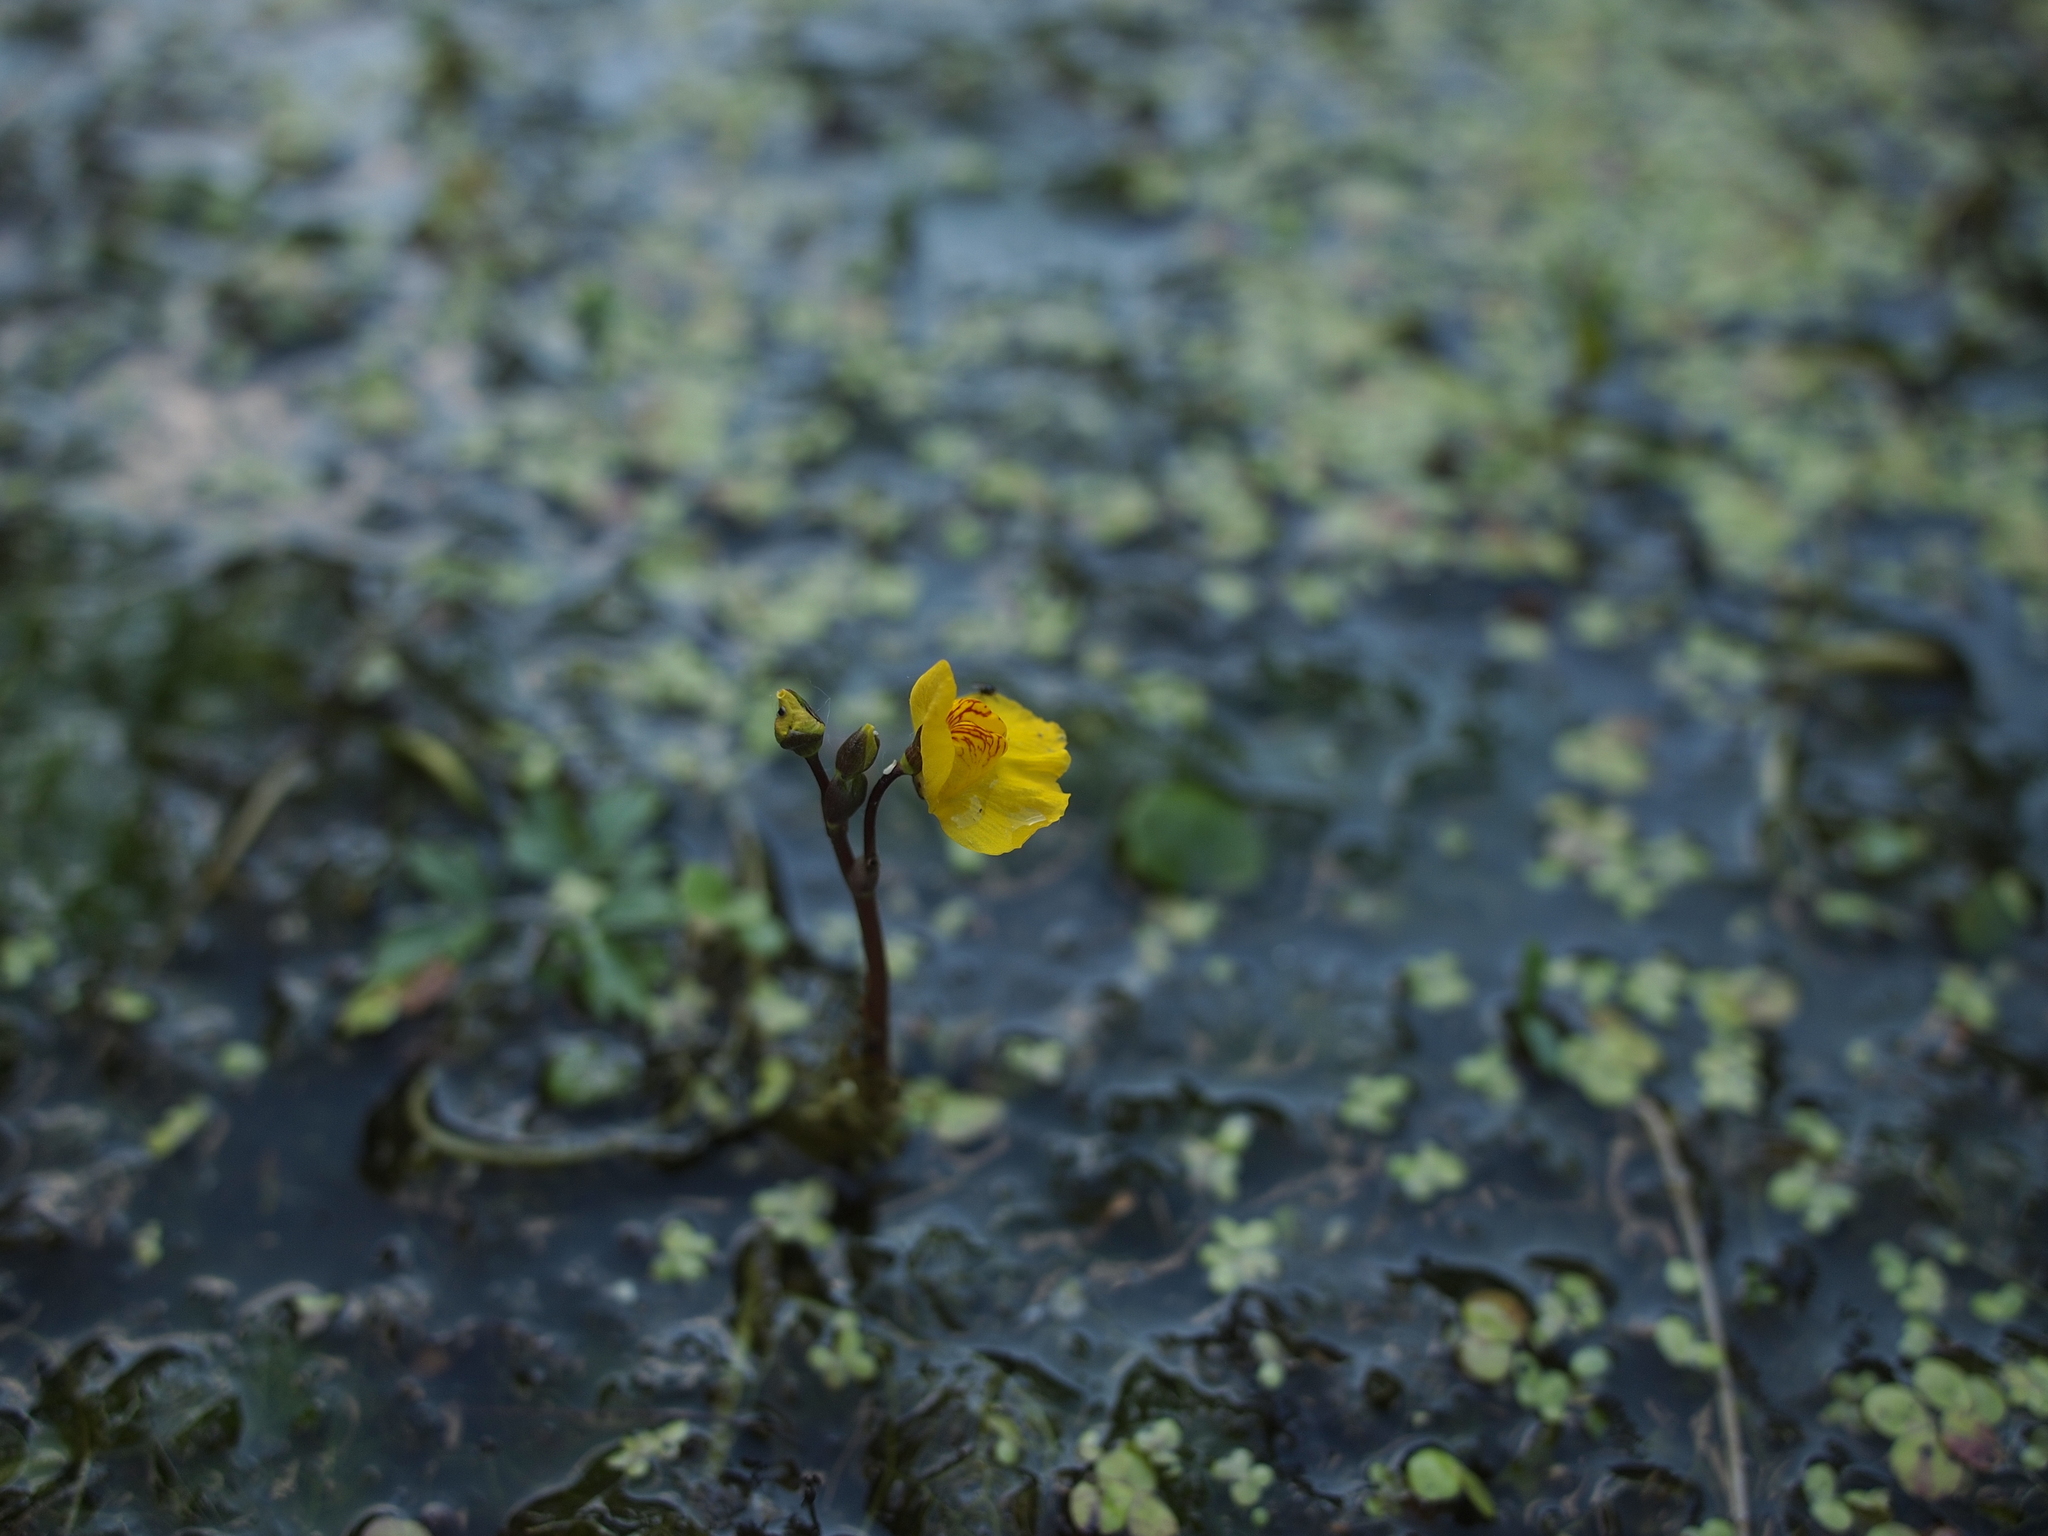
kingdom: Plantae
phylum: Tracheophyta
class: Magnoliopsida
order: Lamiales
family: Lentibulariaceae
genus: Utricularia
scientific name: Utricularia australis
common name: Bladderwort
